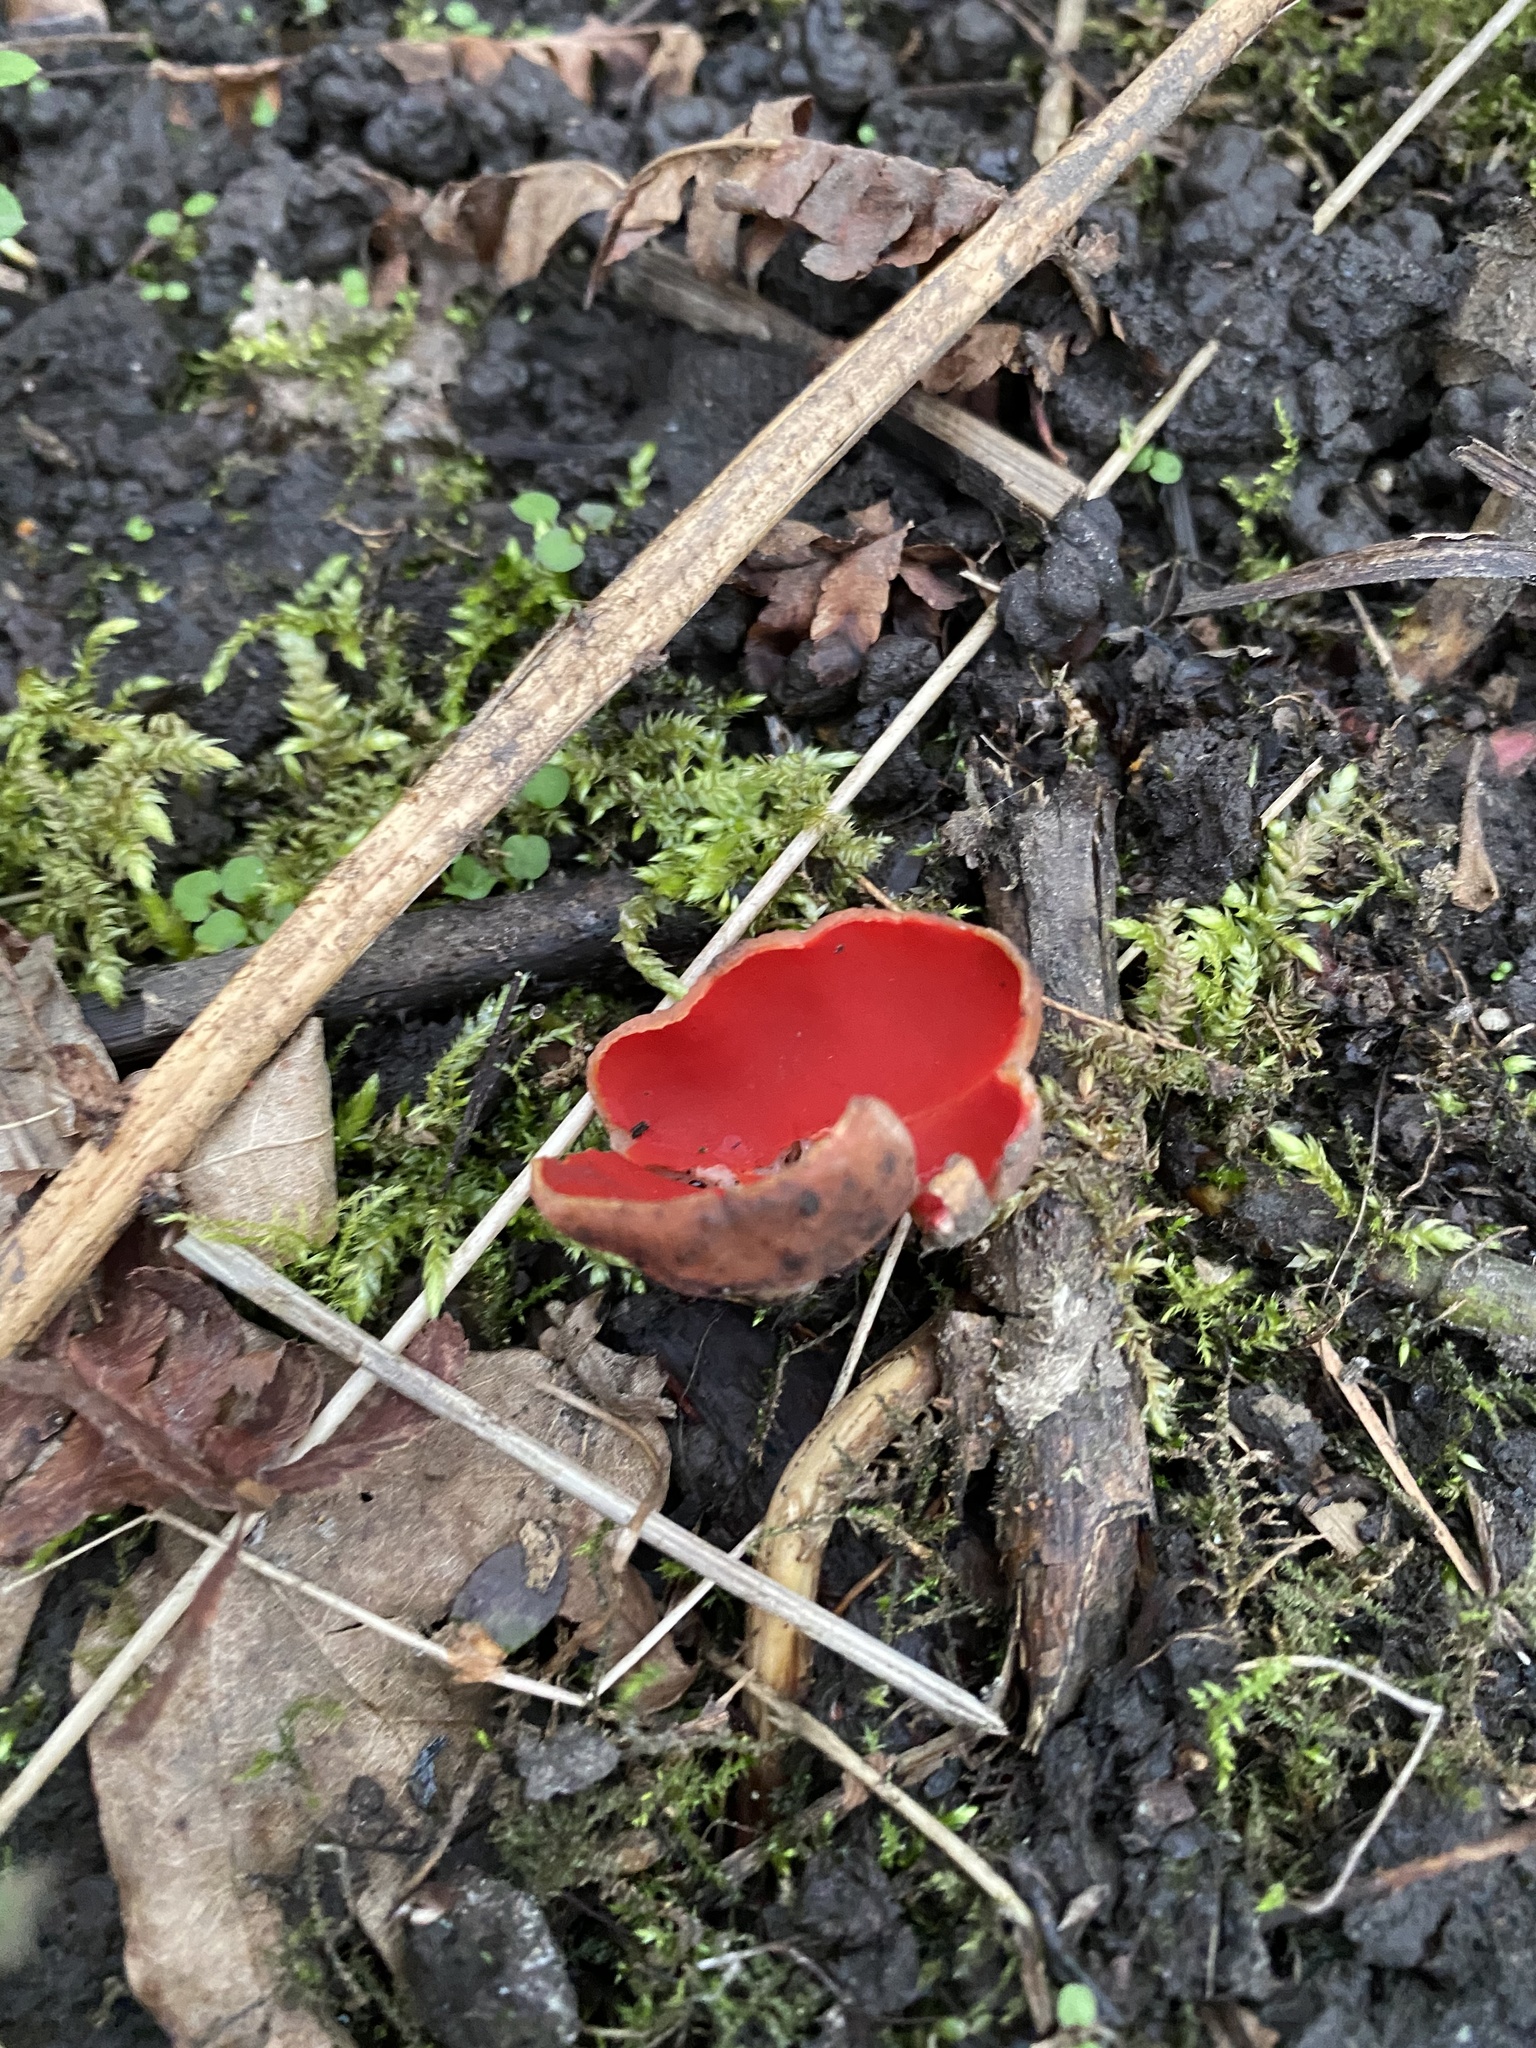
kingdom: Fungi
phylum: Ascomycota
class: Pezizomycetes
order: Pezizales
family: Sarcoscyphaceae
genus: Sarcoscypha
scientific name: Sarcoscypha
